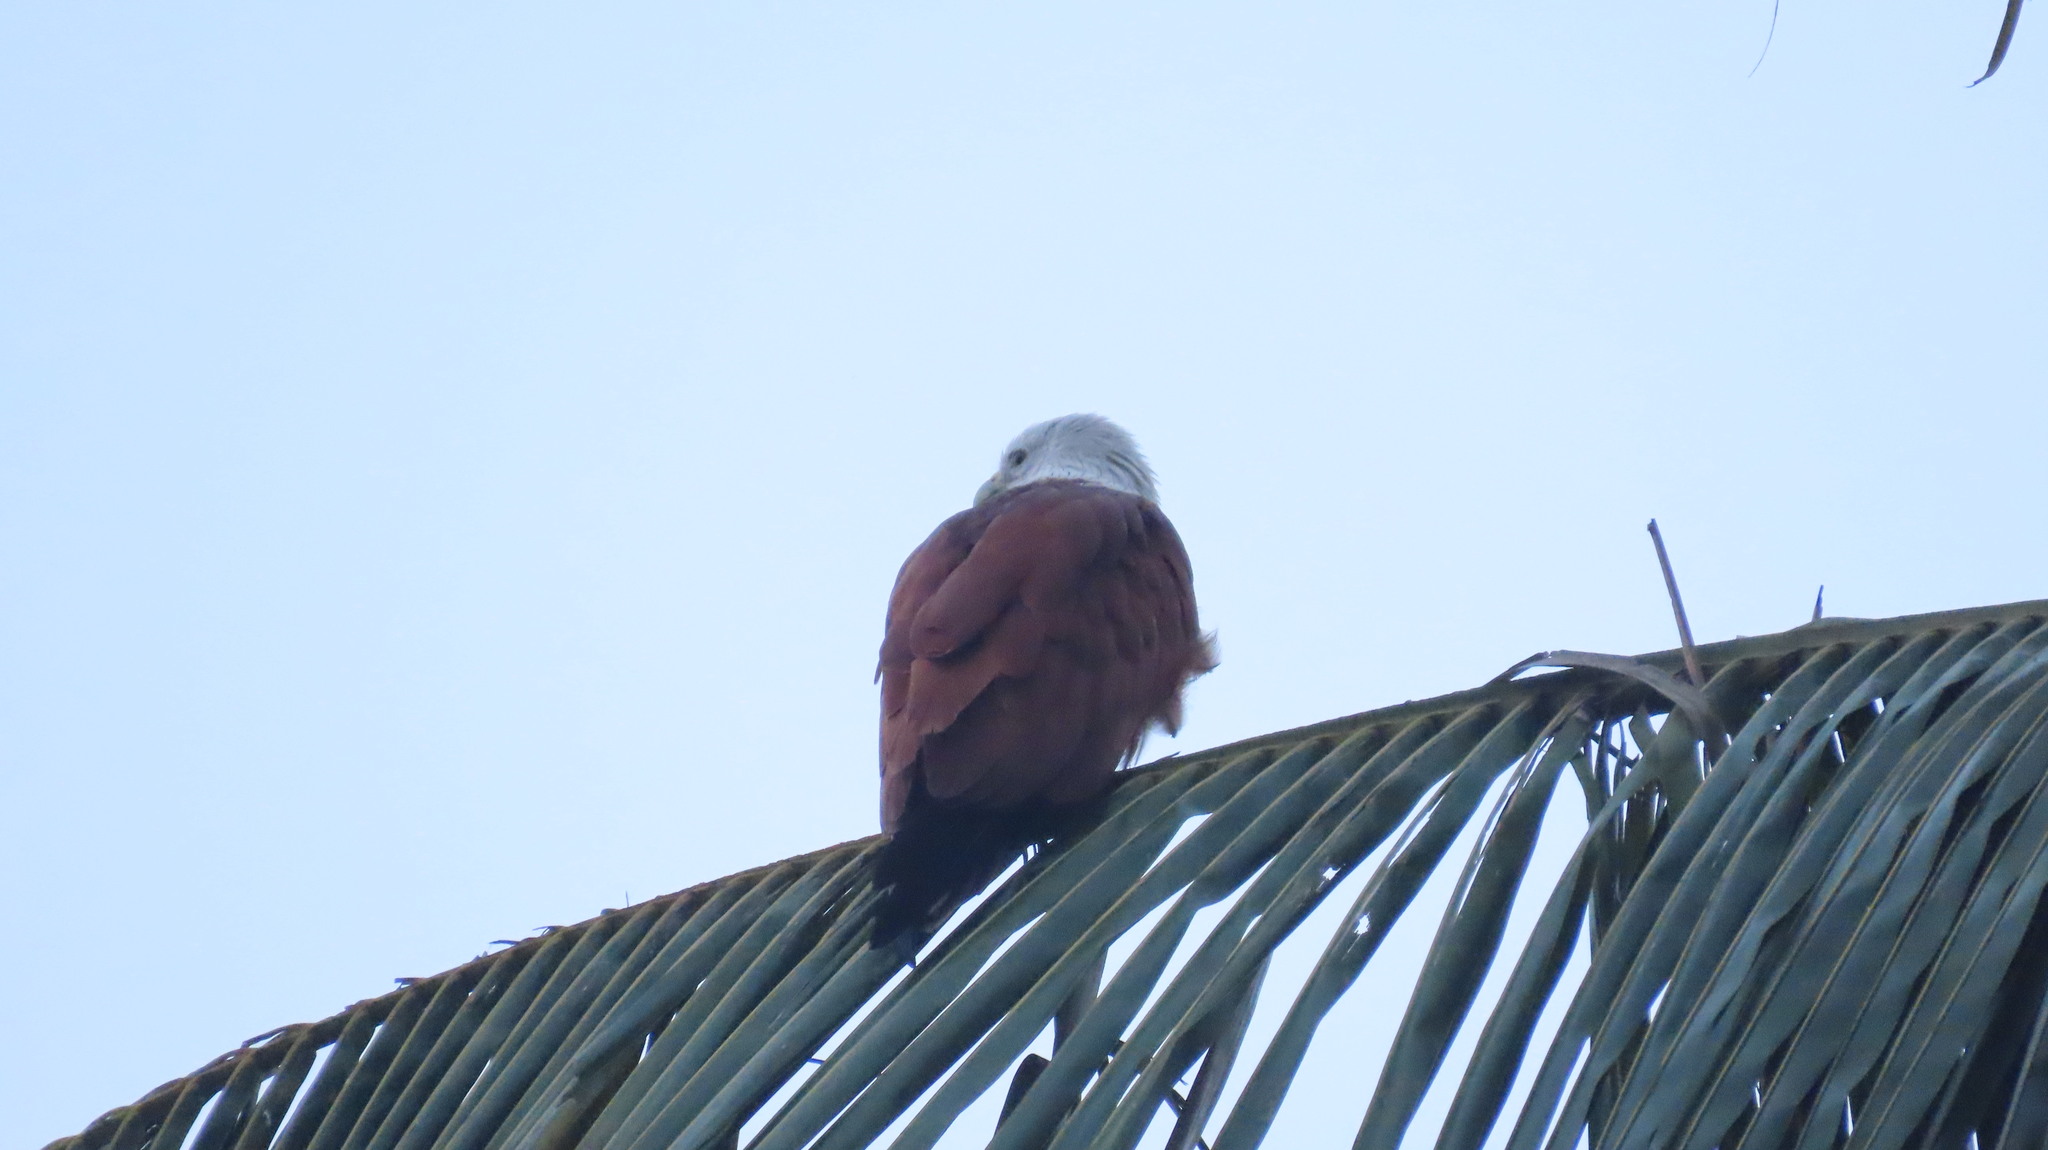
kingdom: Animalia
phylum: Chordata
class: Aves
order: Accipitriformes
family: Accipitridae
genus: Haliastur
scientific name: Haliastur indus
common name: Brahminy kite
